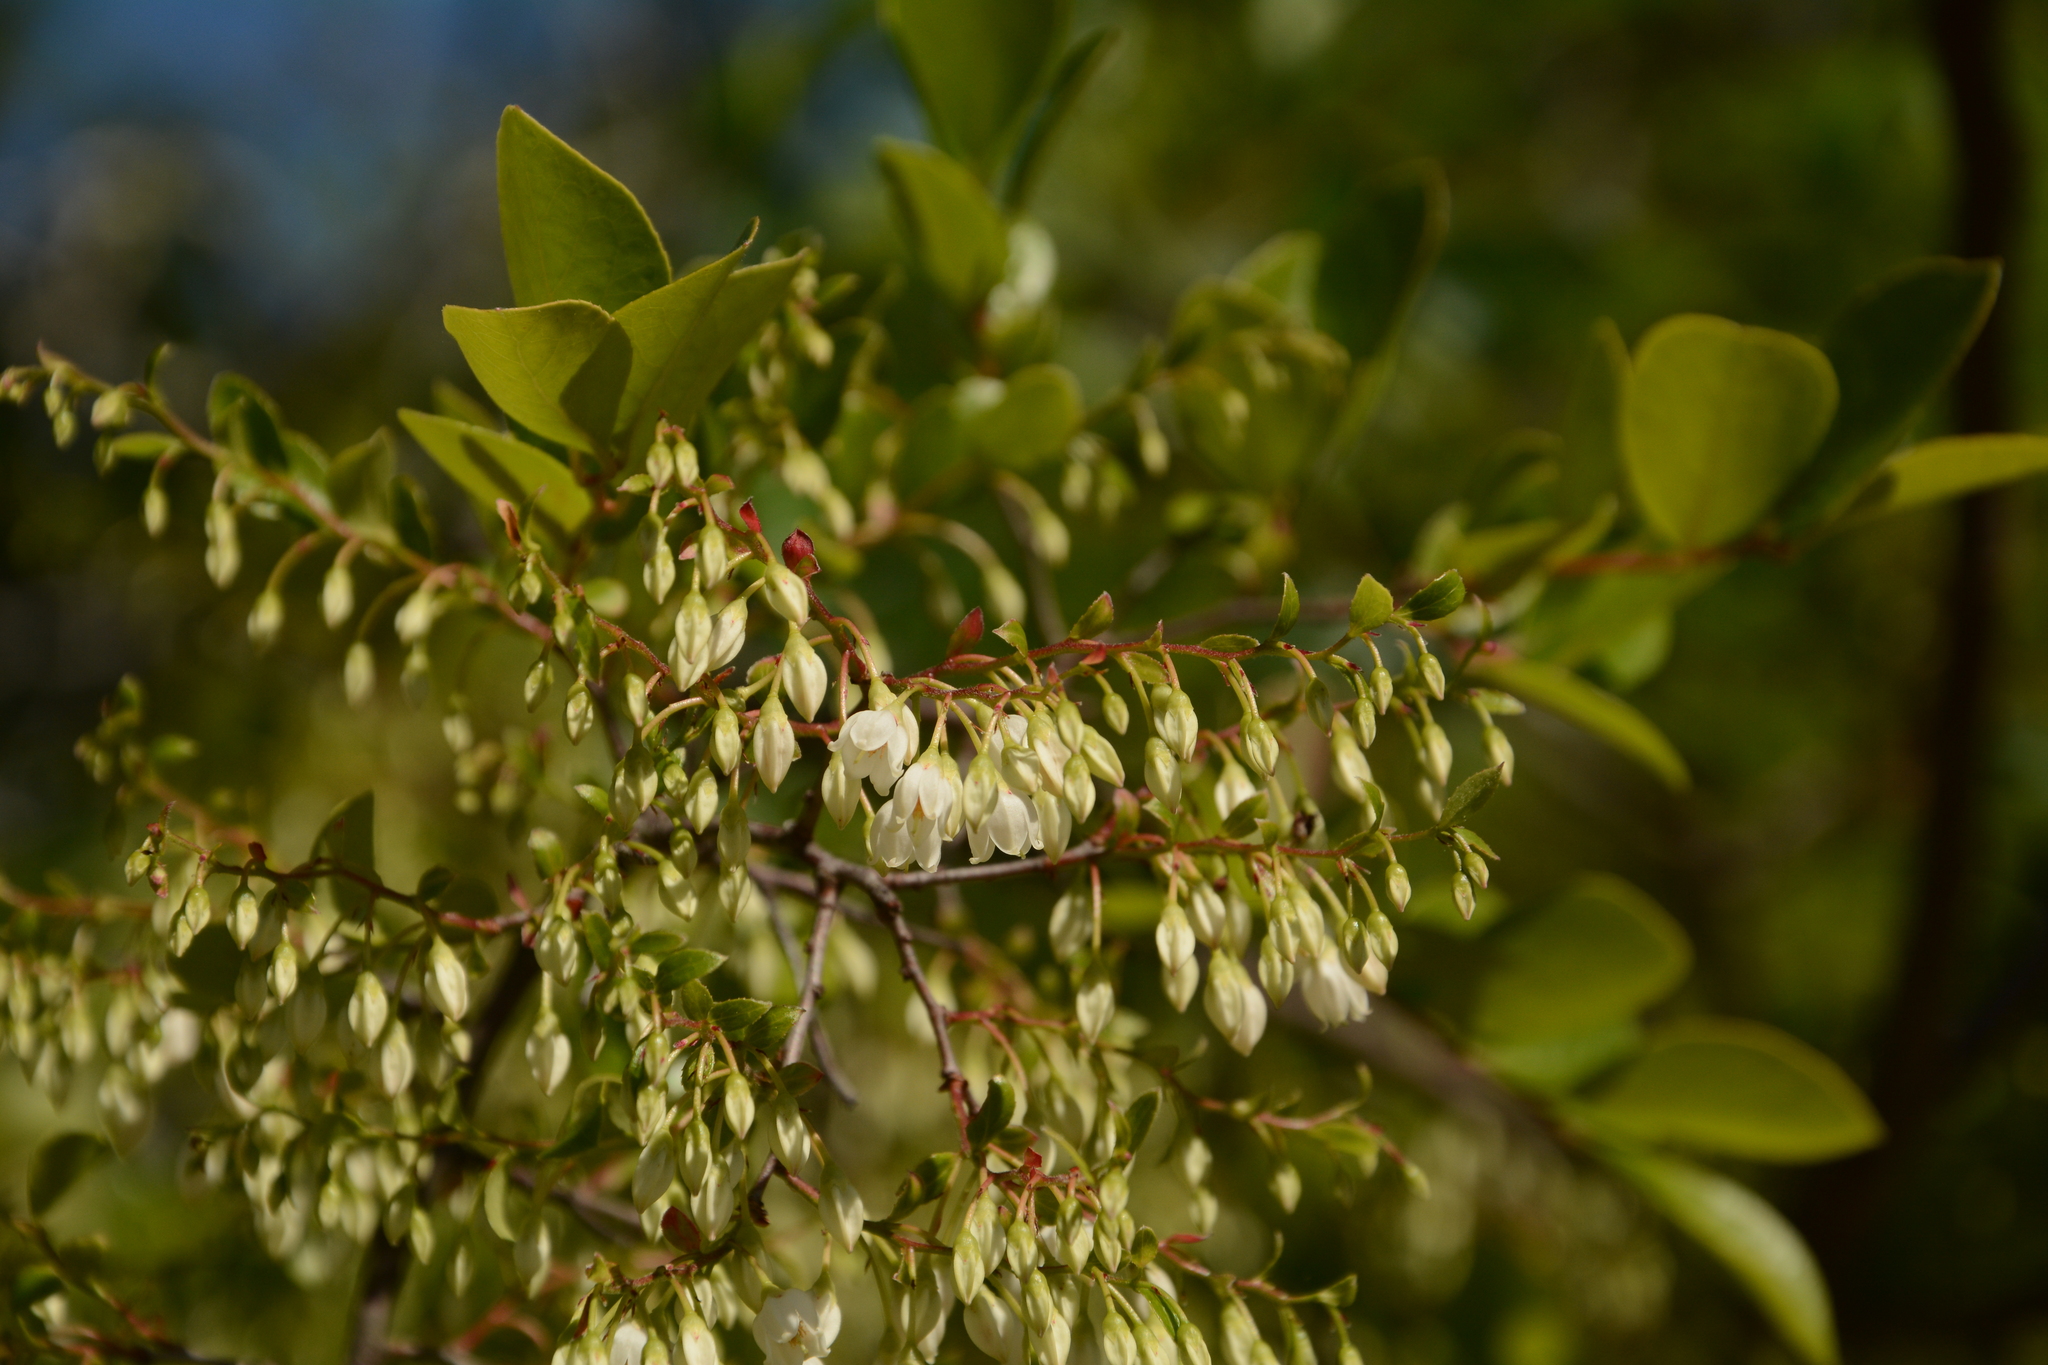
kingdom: Plantae
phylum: Tracheophyta
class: Magnoliopsida
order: Ericales
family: Ericaceae
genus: Vaccinium
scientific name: Vaccinium arboreum
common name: Farkleberry
